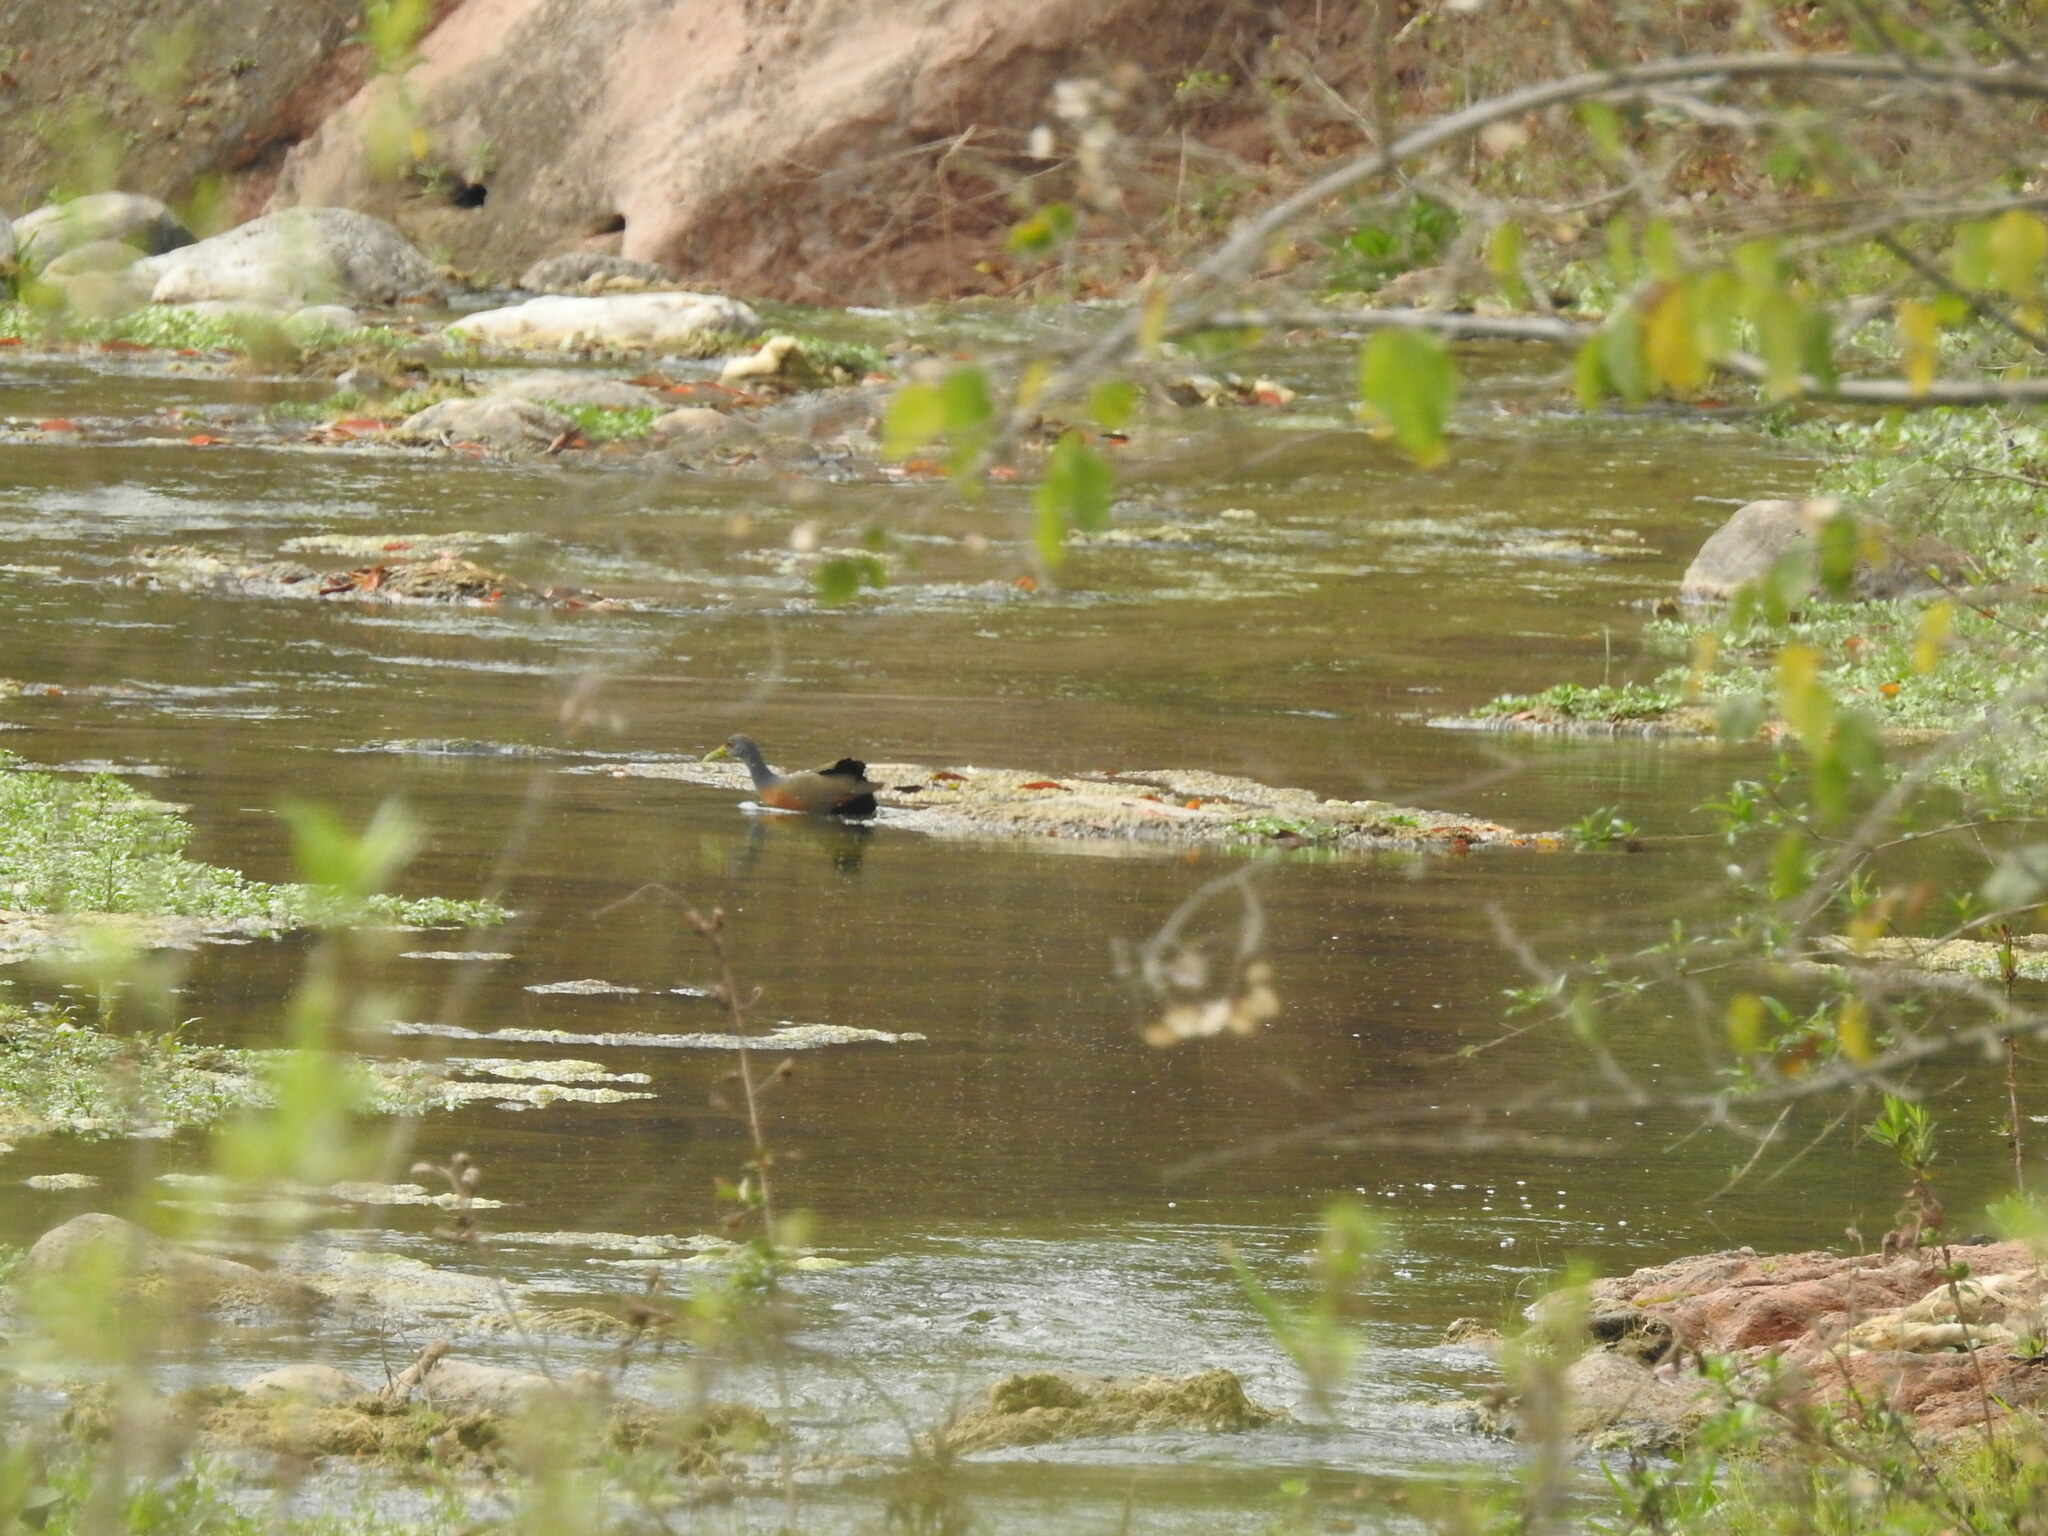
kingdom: Animalia
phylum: Chordata
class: Aves
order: Gruiformes
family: Rallidae
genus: Aramides
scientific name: Aramides cajanea
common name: Gray-necked wood-rail
